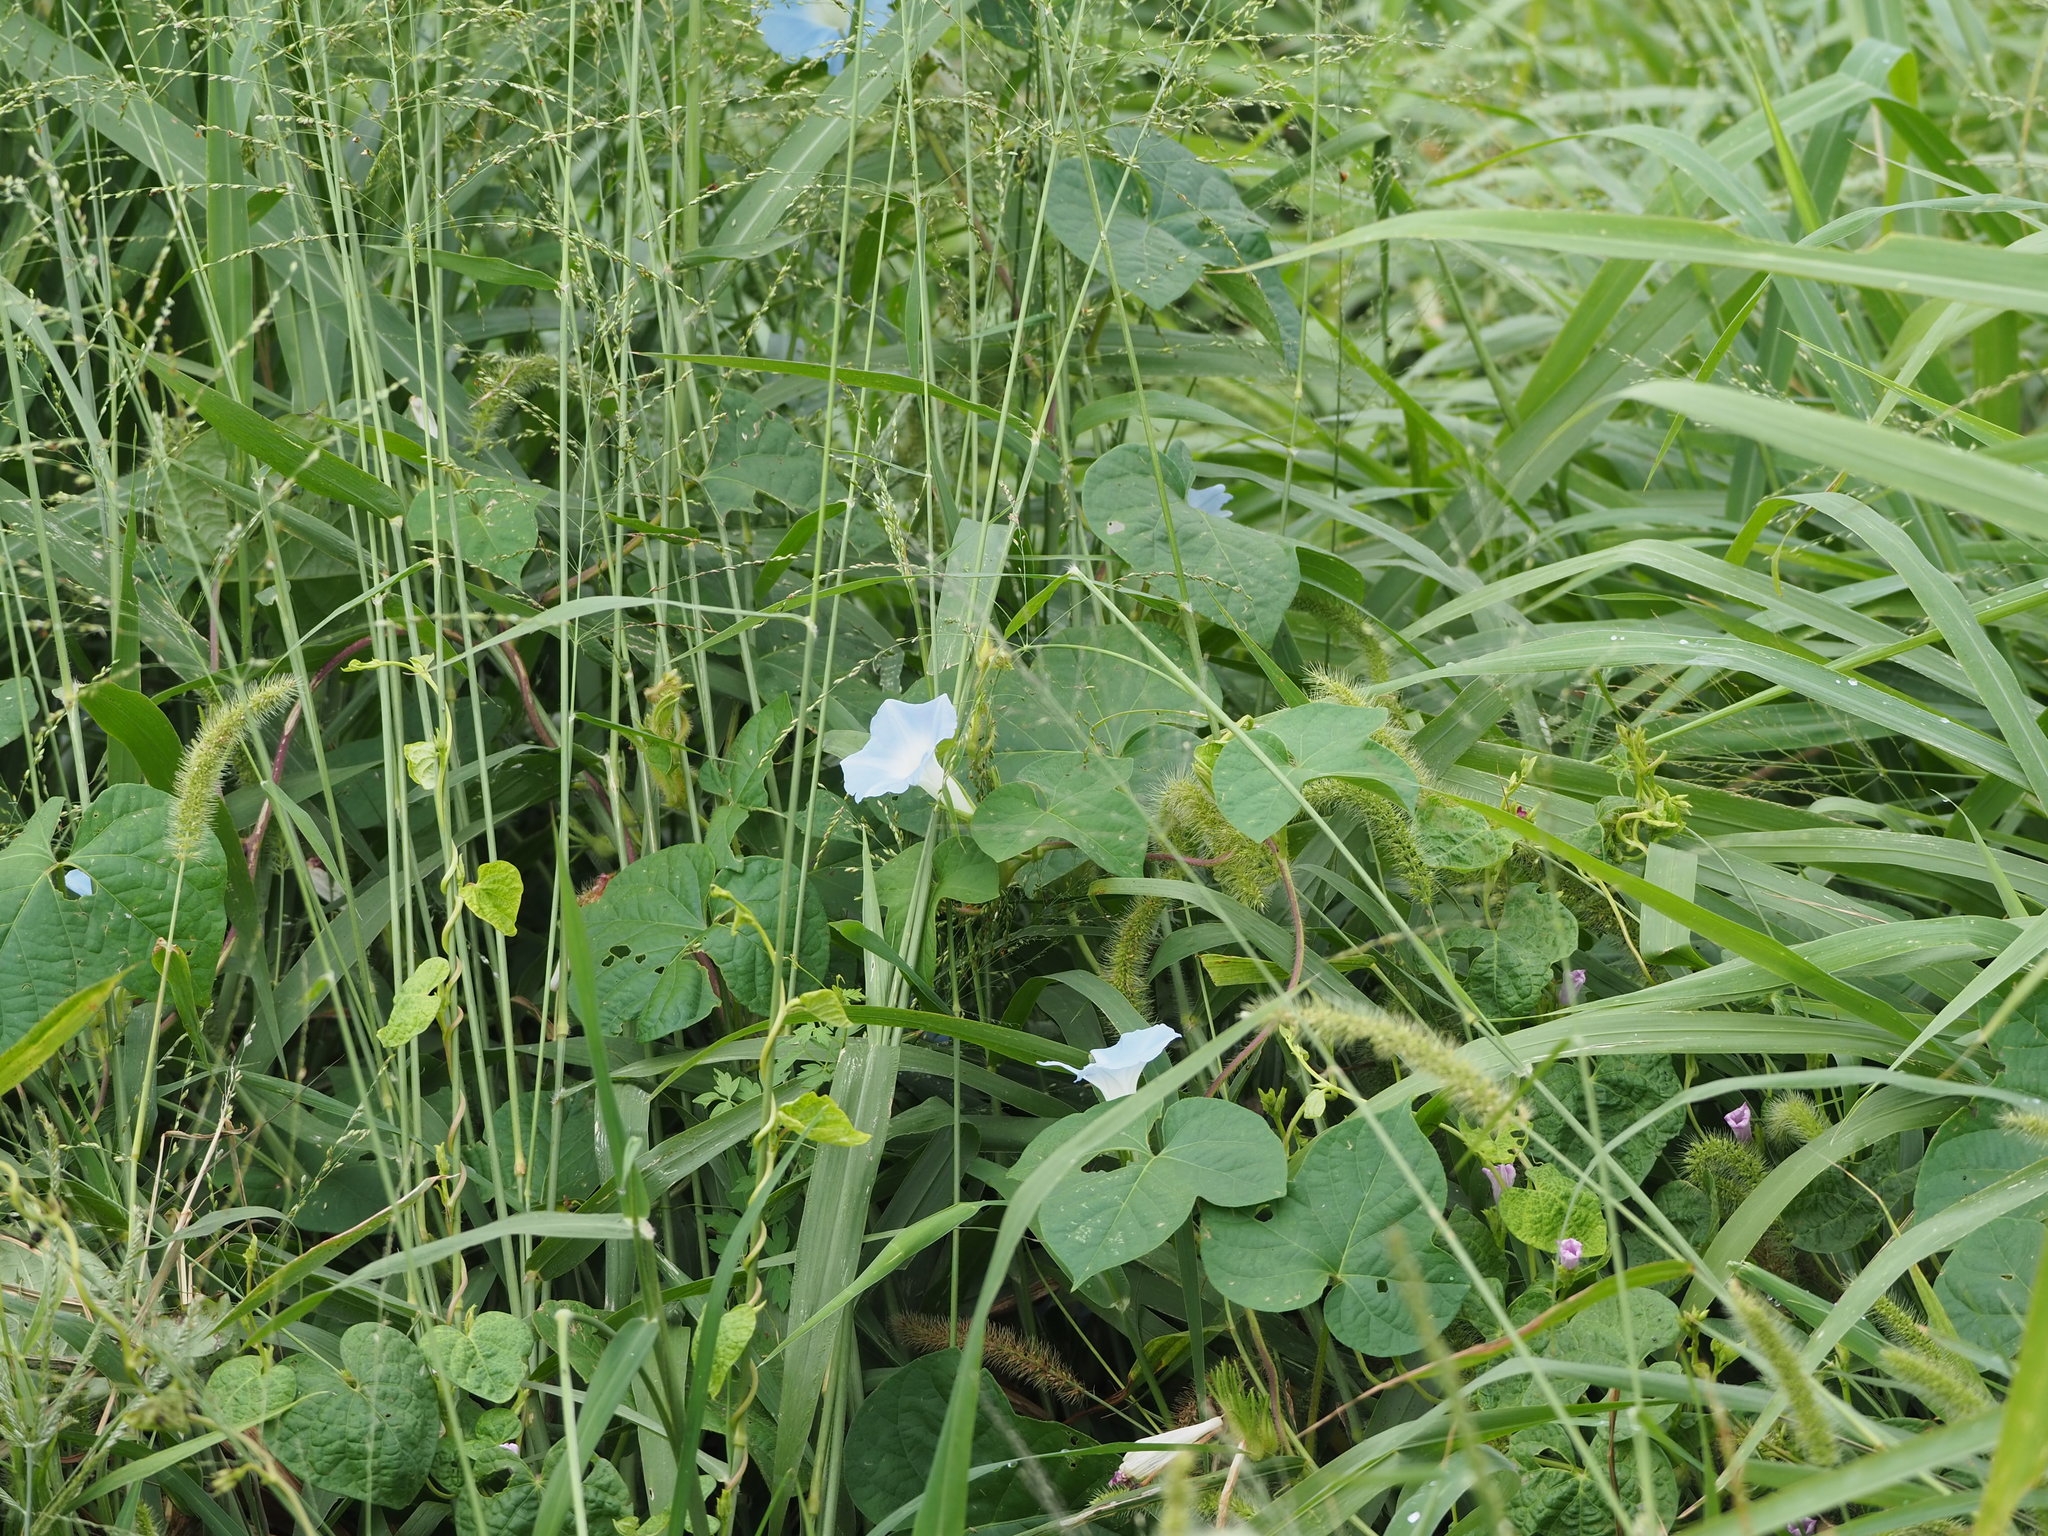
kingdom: Plantae
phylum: Tracheophyta
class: Magnoliopsida
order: Solanales
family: Convolvulaceae
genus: Ipomoea
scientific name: Ipomoea nil
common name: Japanese morning-glory
